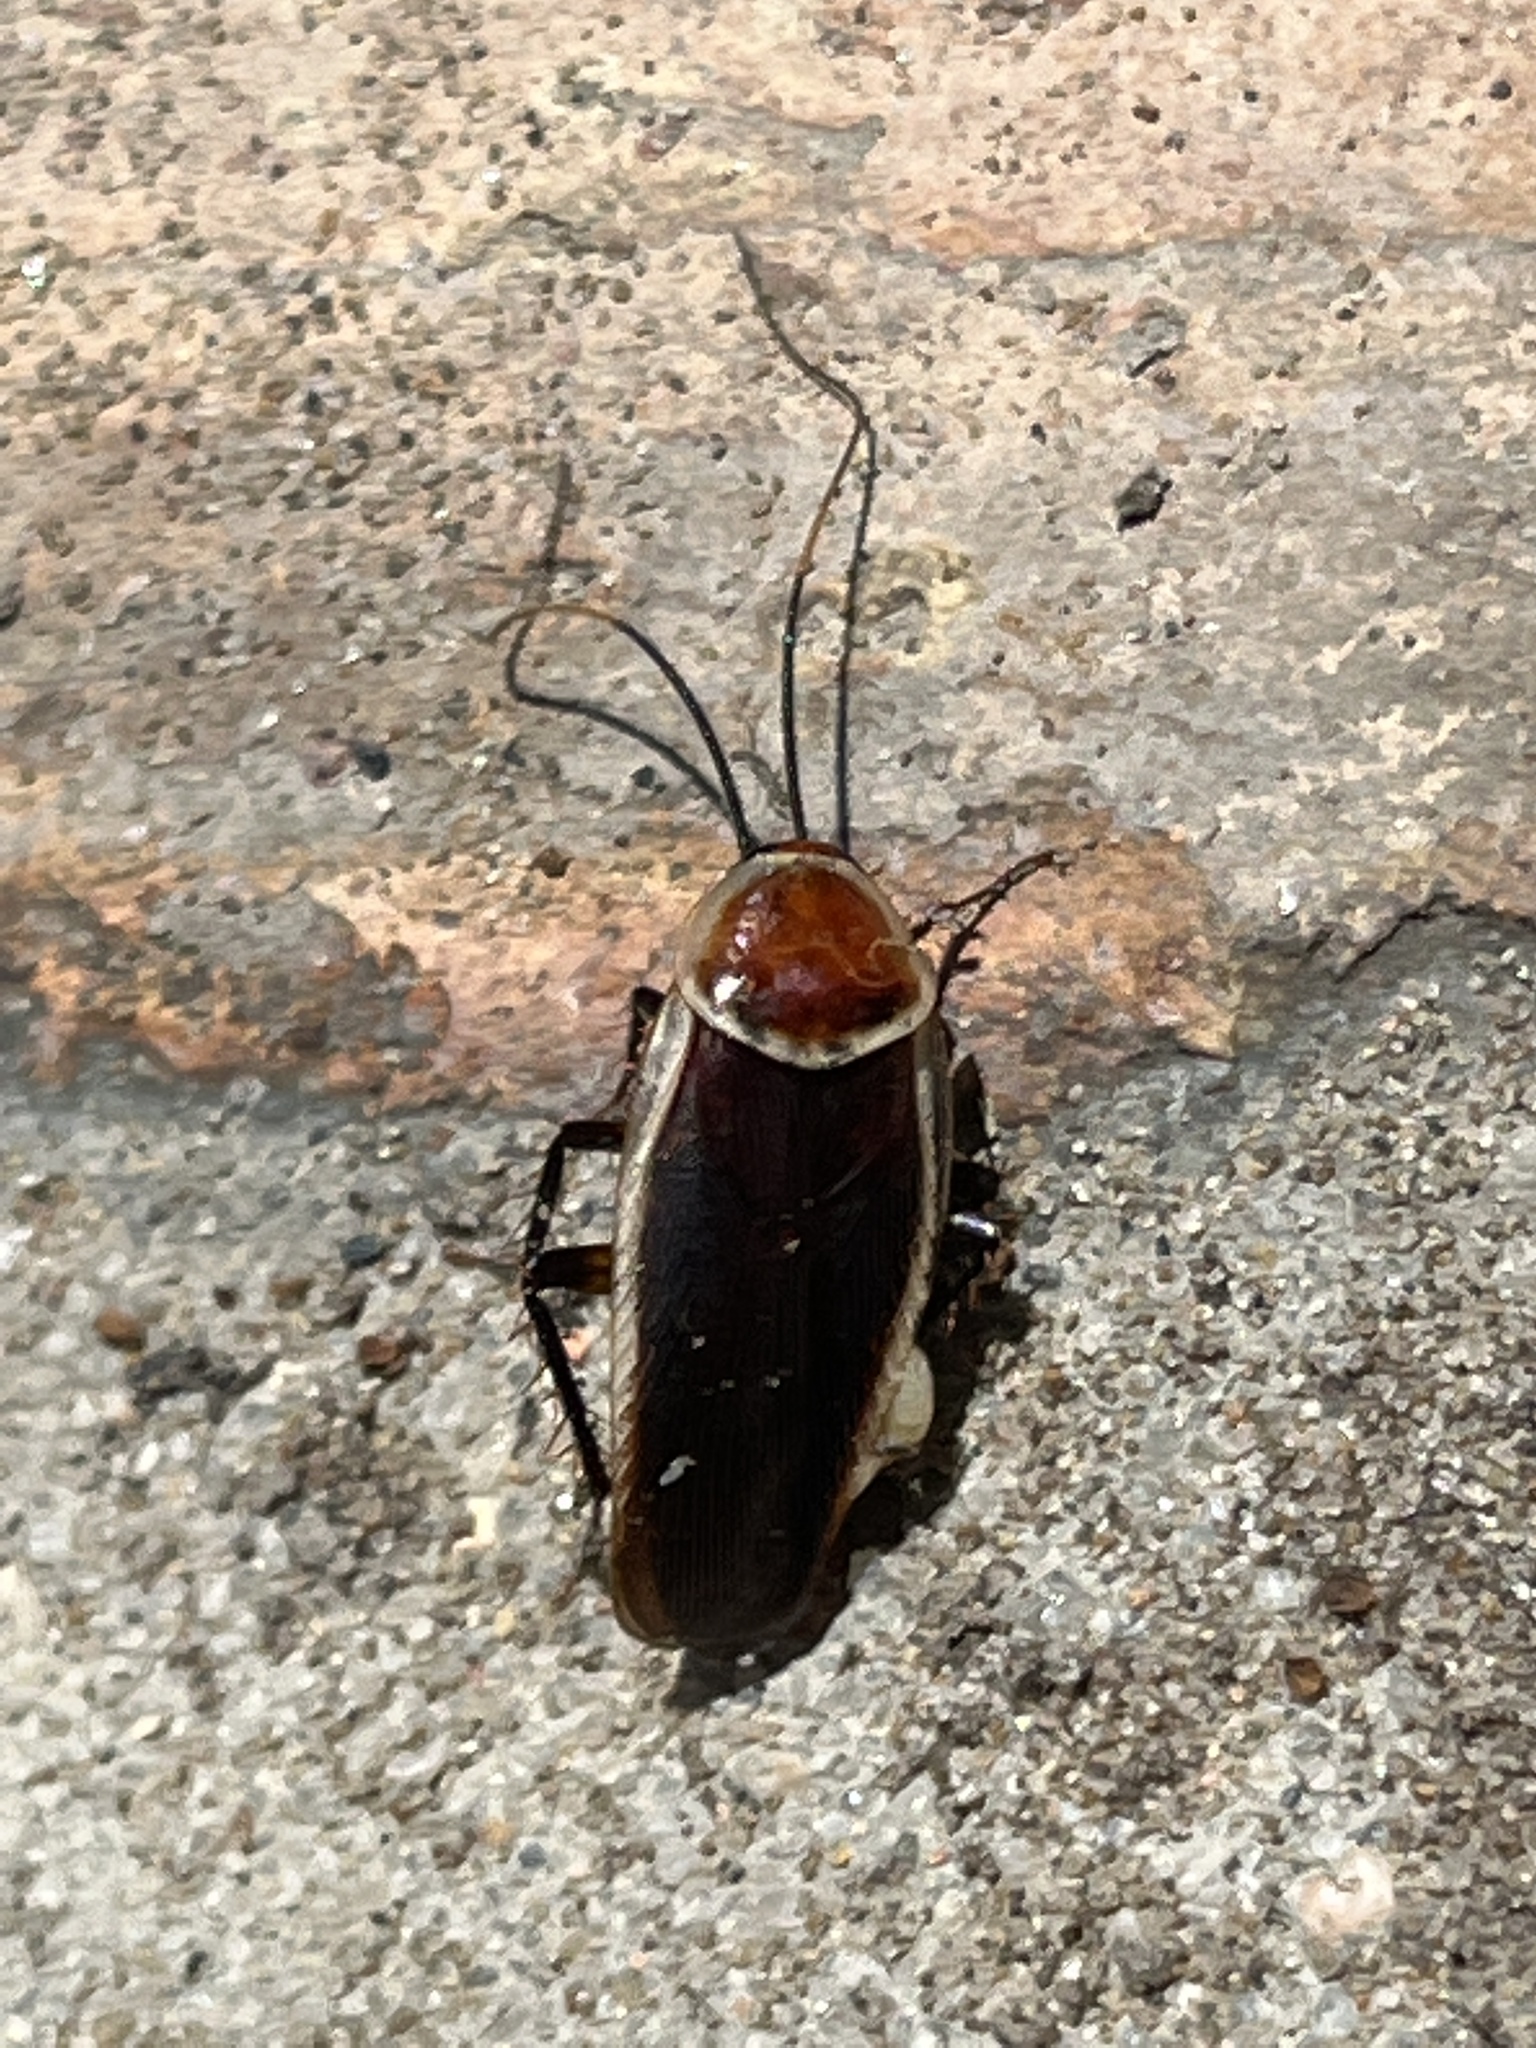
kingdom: Animalia
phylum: Arthropoda
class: Insecta
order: Blattodea
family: Ectobiidae
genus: Pseudomops
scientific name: Pseudomops septentrionalis
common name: Pale-bordered field cockroach
